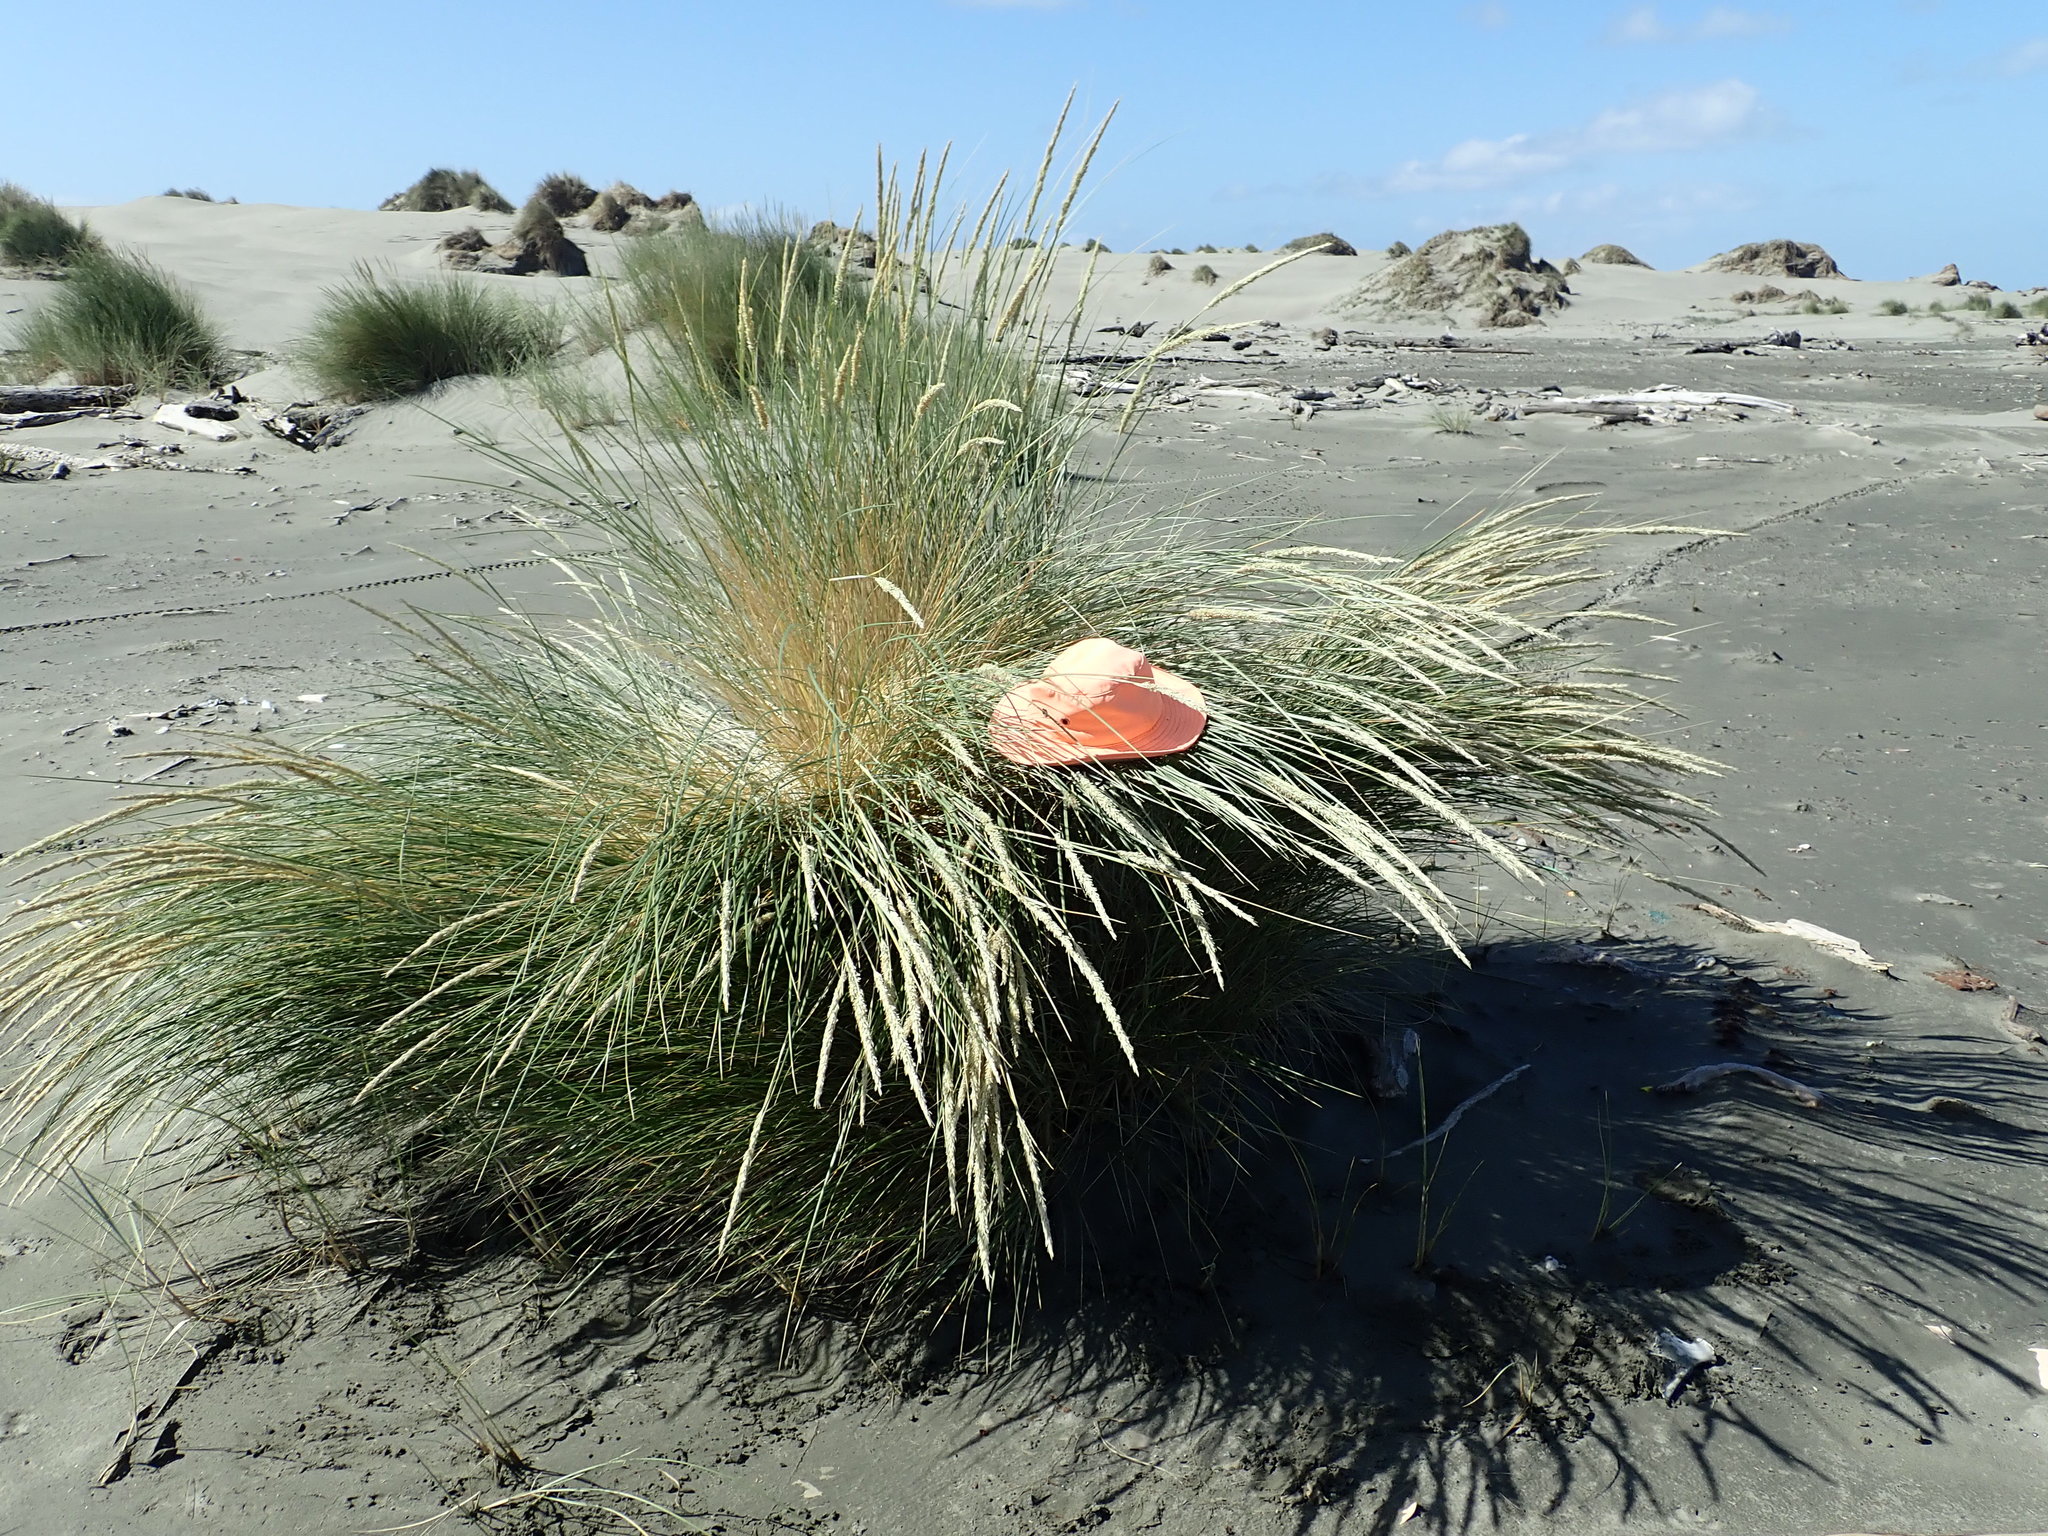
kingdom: Animalia
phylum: Arthropoda
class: Arachnida
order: Araneae
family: Thomisidae
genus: Sidymella
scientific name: Sidymella trapezia
